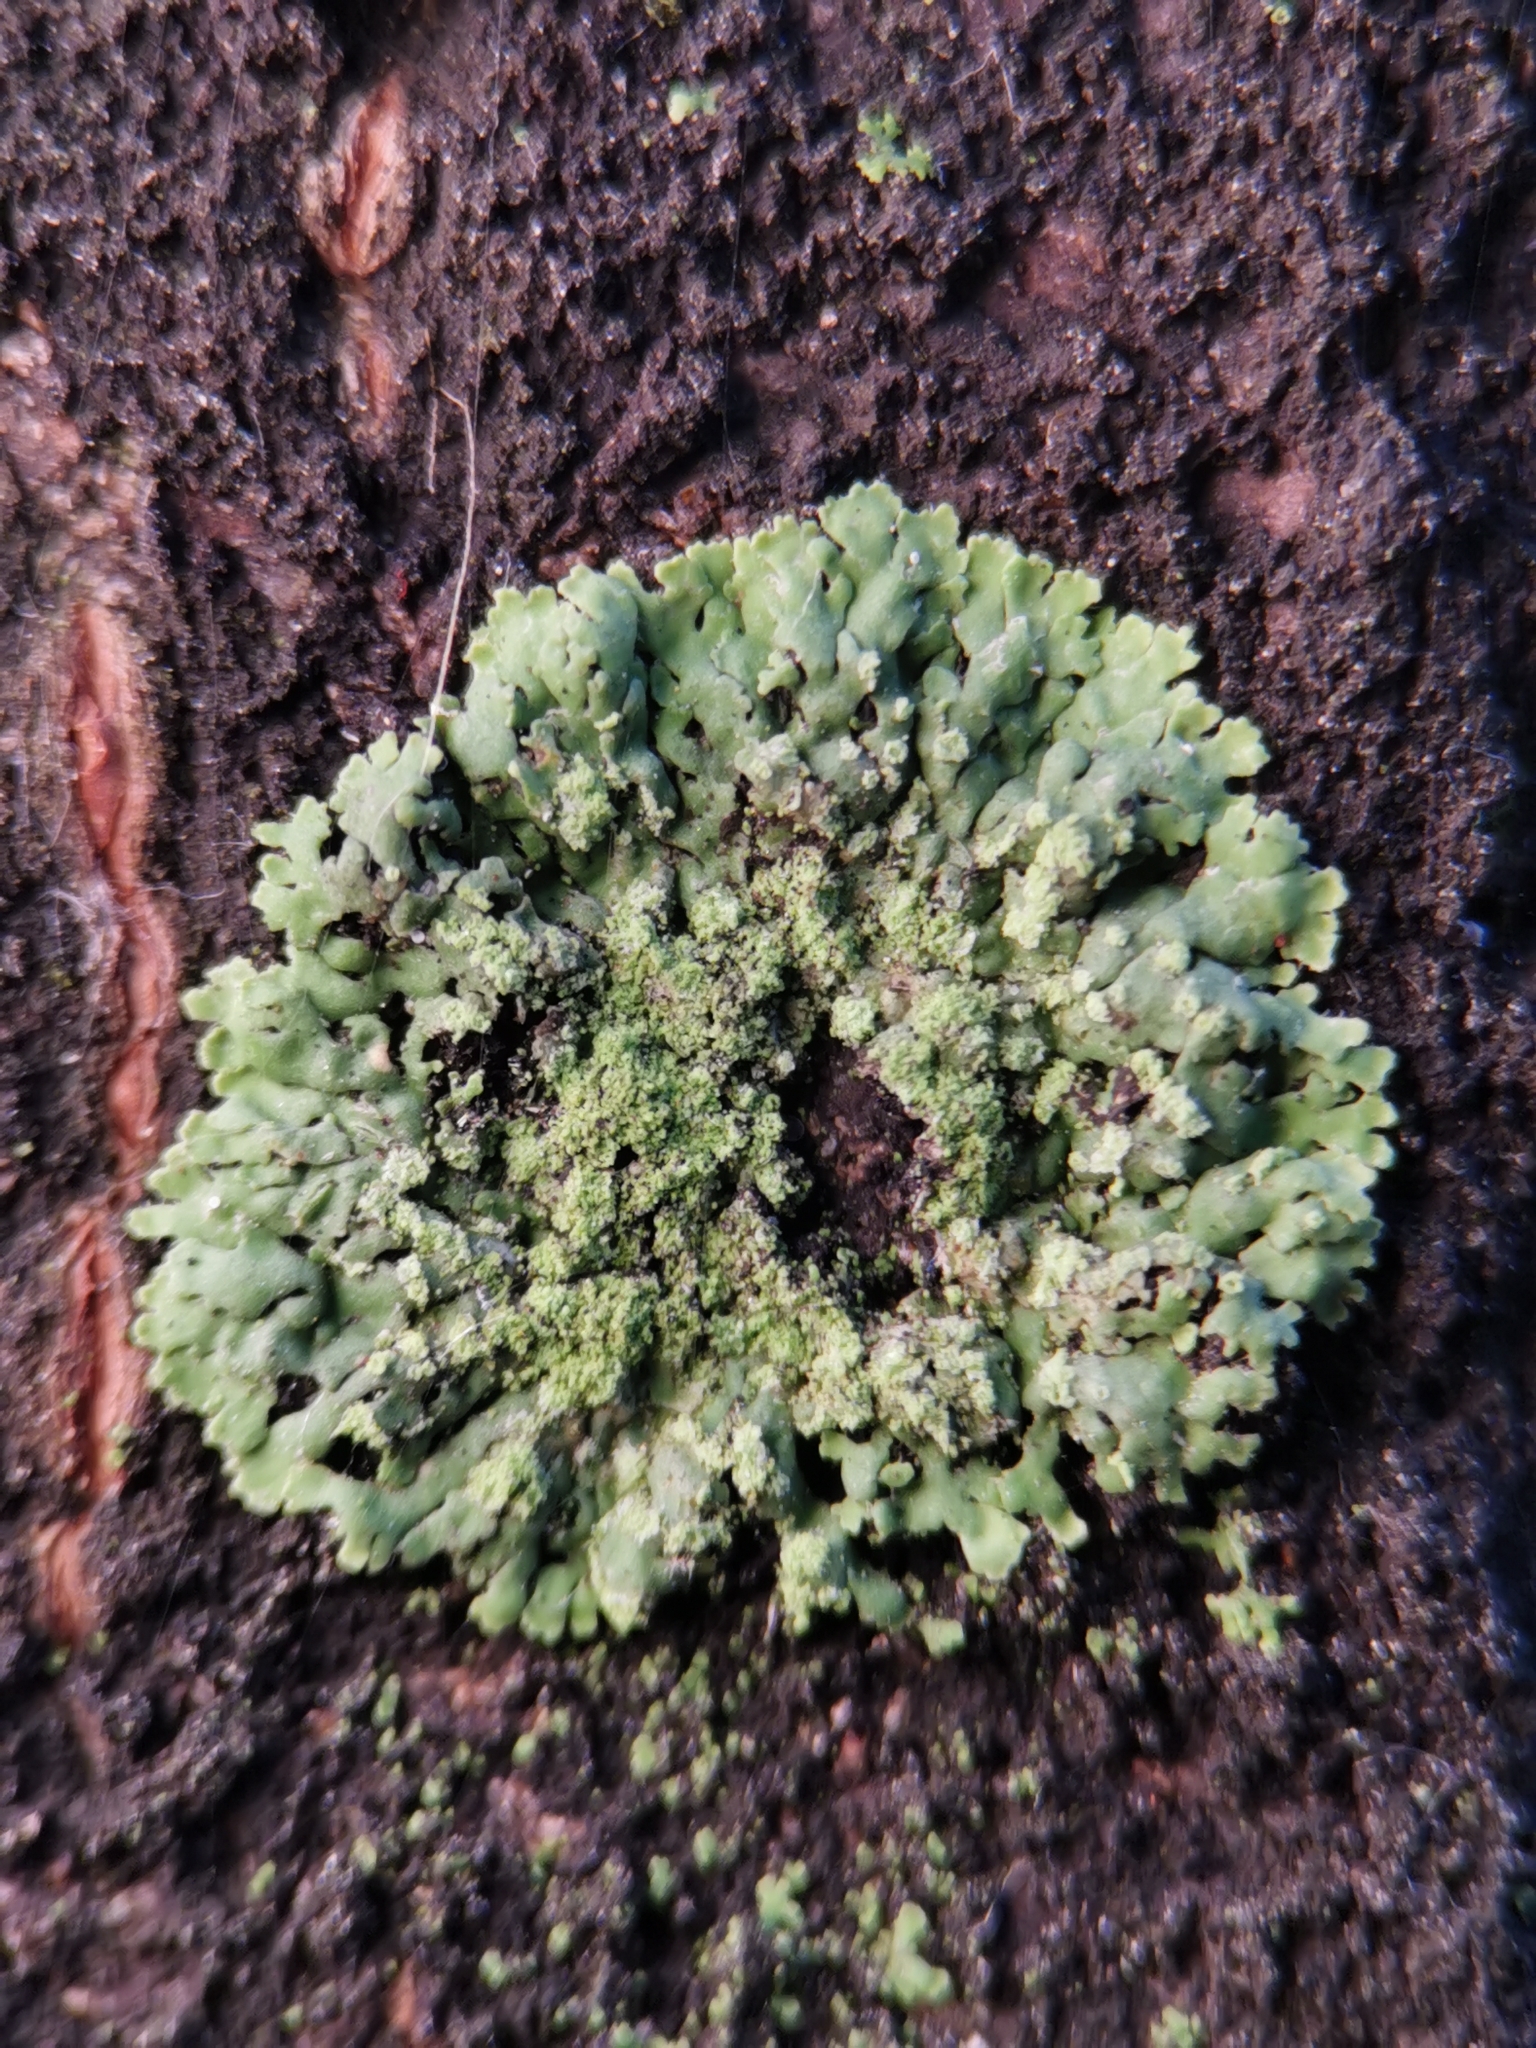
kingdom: Fungi
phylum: Ascomycota
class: Lecanoromycetes
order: Caliciales
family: Physciaceae
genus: Phaeophyscia
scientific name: Phaeophyscia orbicularis
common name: Mealy shadow lichen
